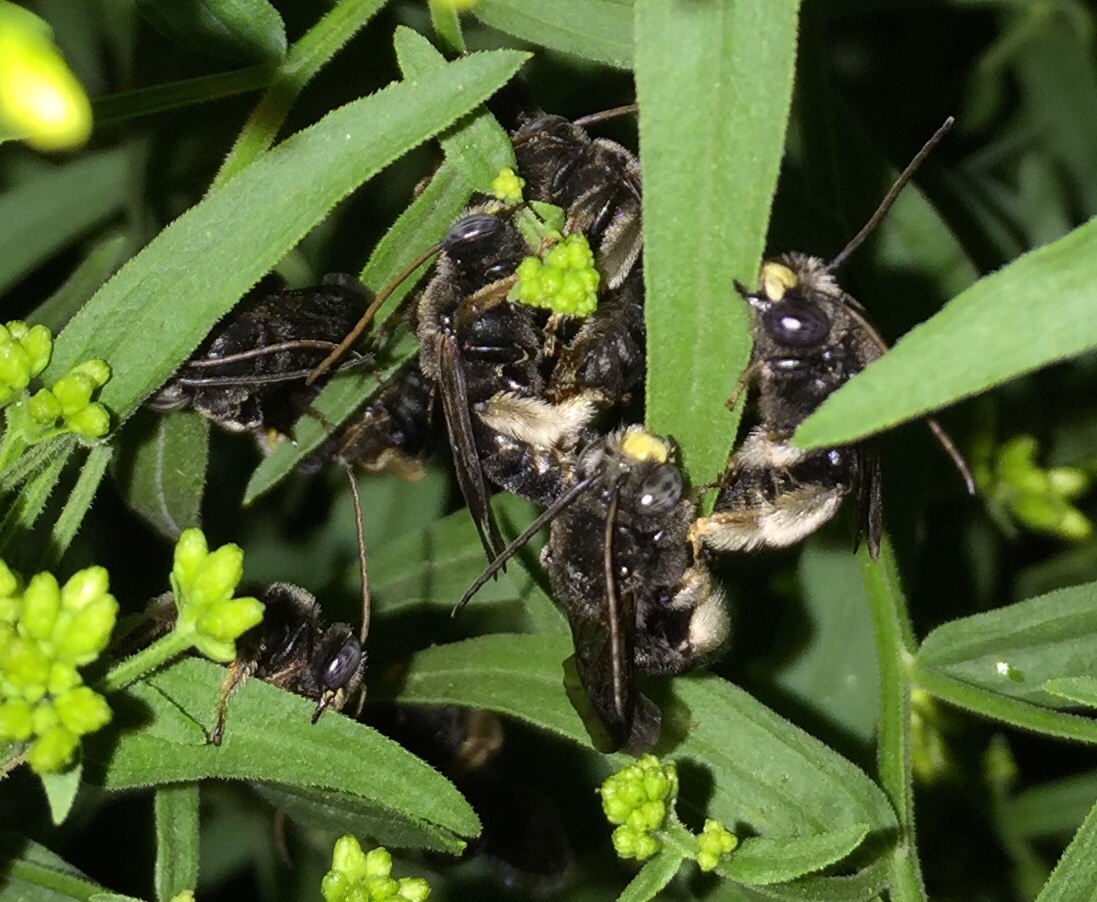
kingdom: Animalia
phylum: Arthropoda
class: Insecta
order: Hymenoptera
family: Apidae
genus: Melissodes
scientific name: Melissodes bimaculatus
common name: Two-spotted long-horned bee
